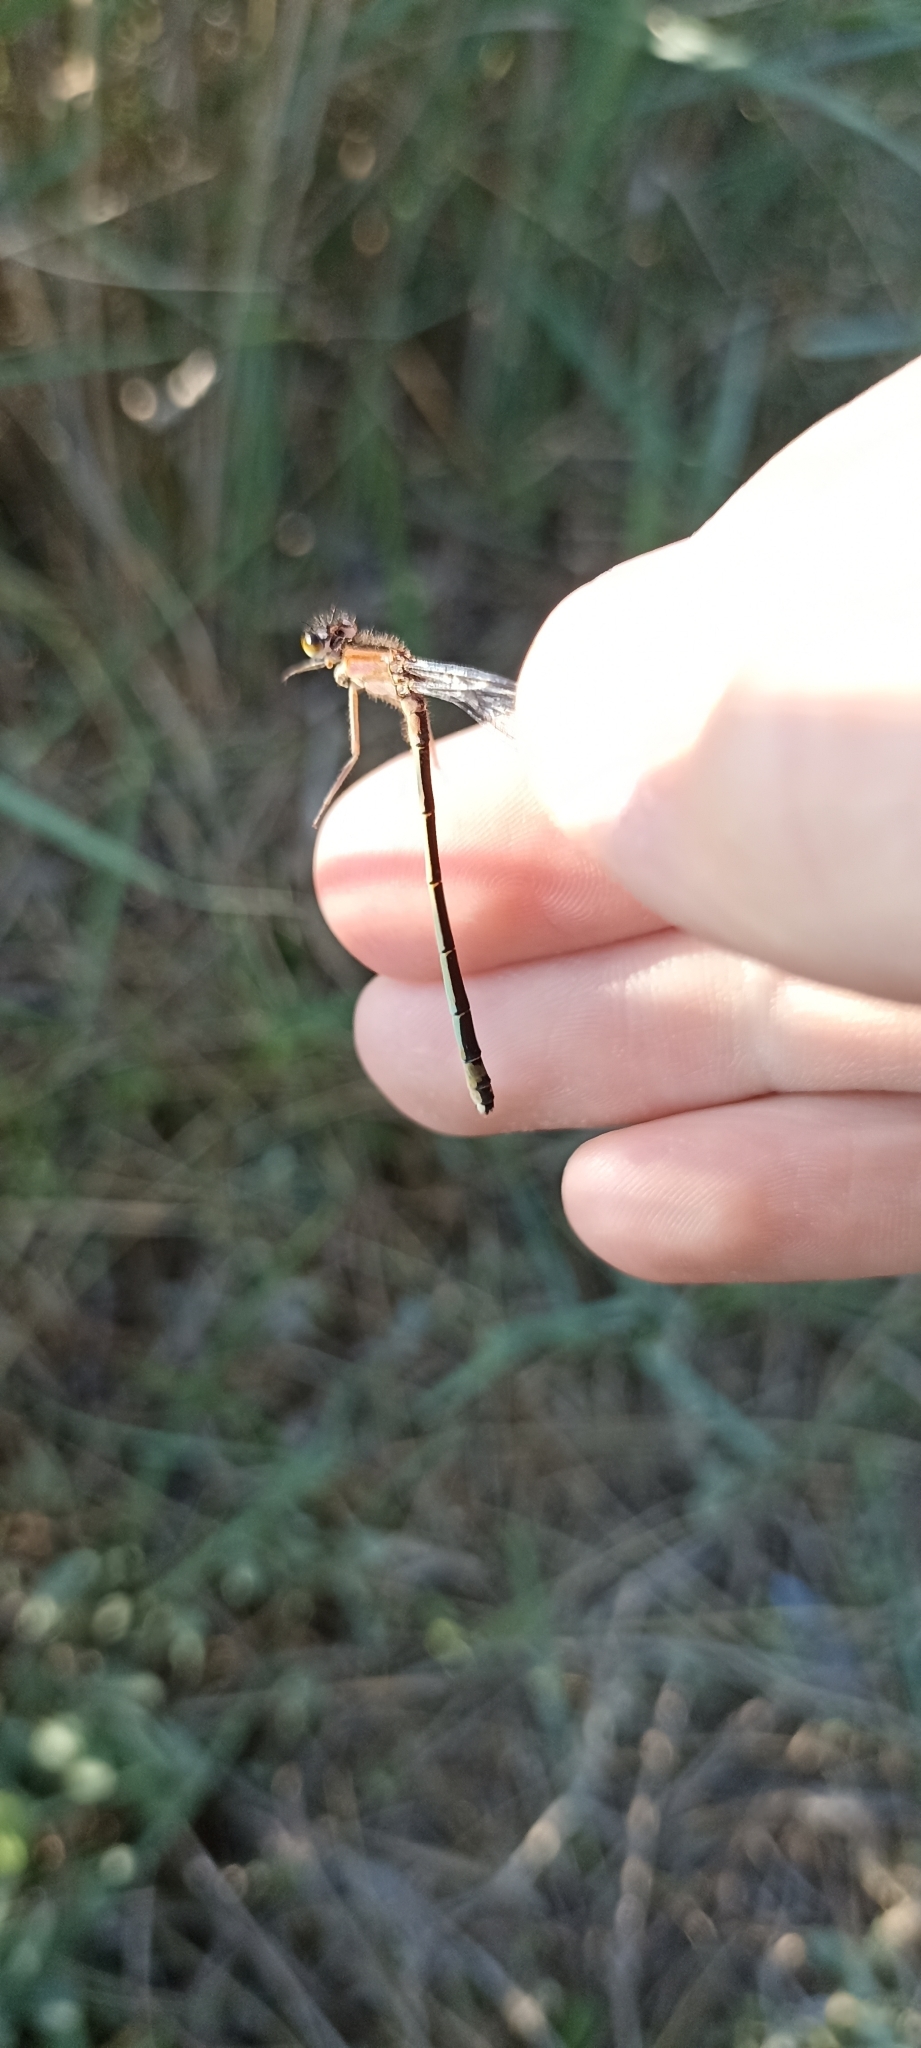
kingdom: Animalia
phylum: Arthropoda
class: Insecta
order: Odonata
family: Coenagrionidae
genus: Ischnura
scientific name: Ischnura elegans
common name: Blue-tailed damselfly
